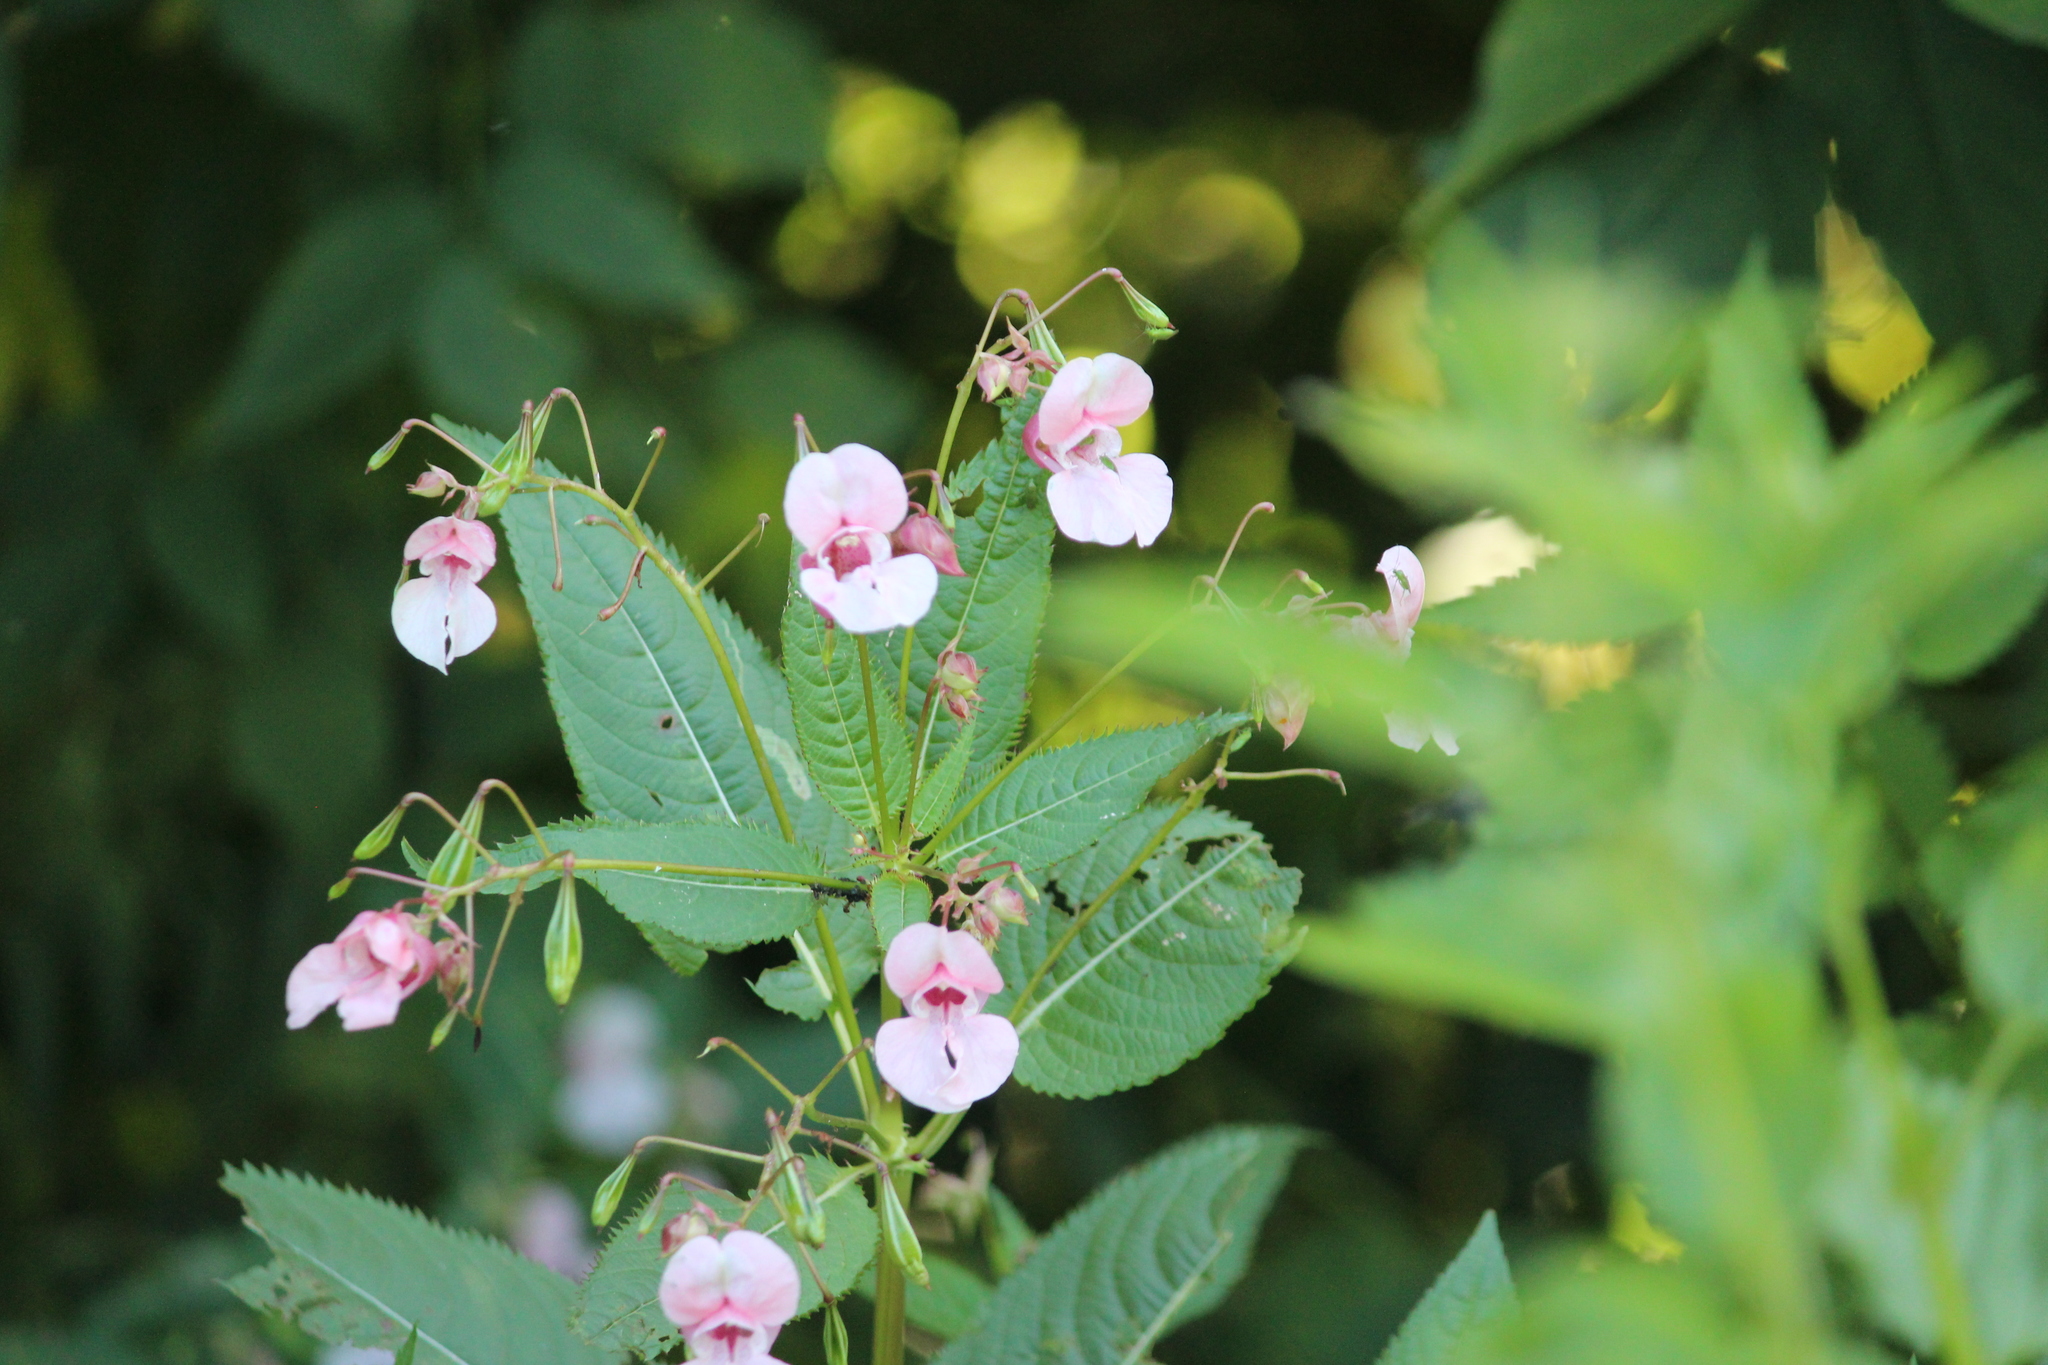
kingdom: Plantae
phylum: Tracheophyta
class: Magnoliopsida
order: Ericales
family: Balsaminaceae
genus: Impatiens
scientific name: Impatiens glandulifera
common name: Himalayan balsam
